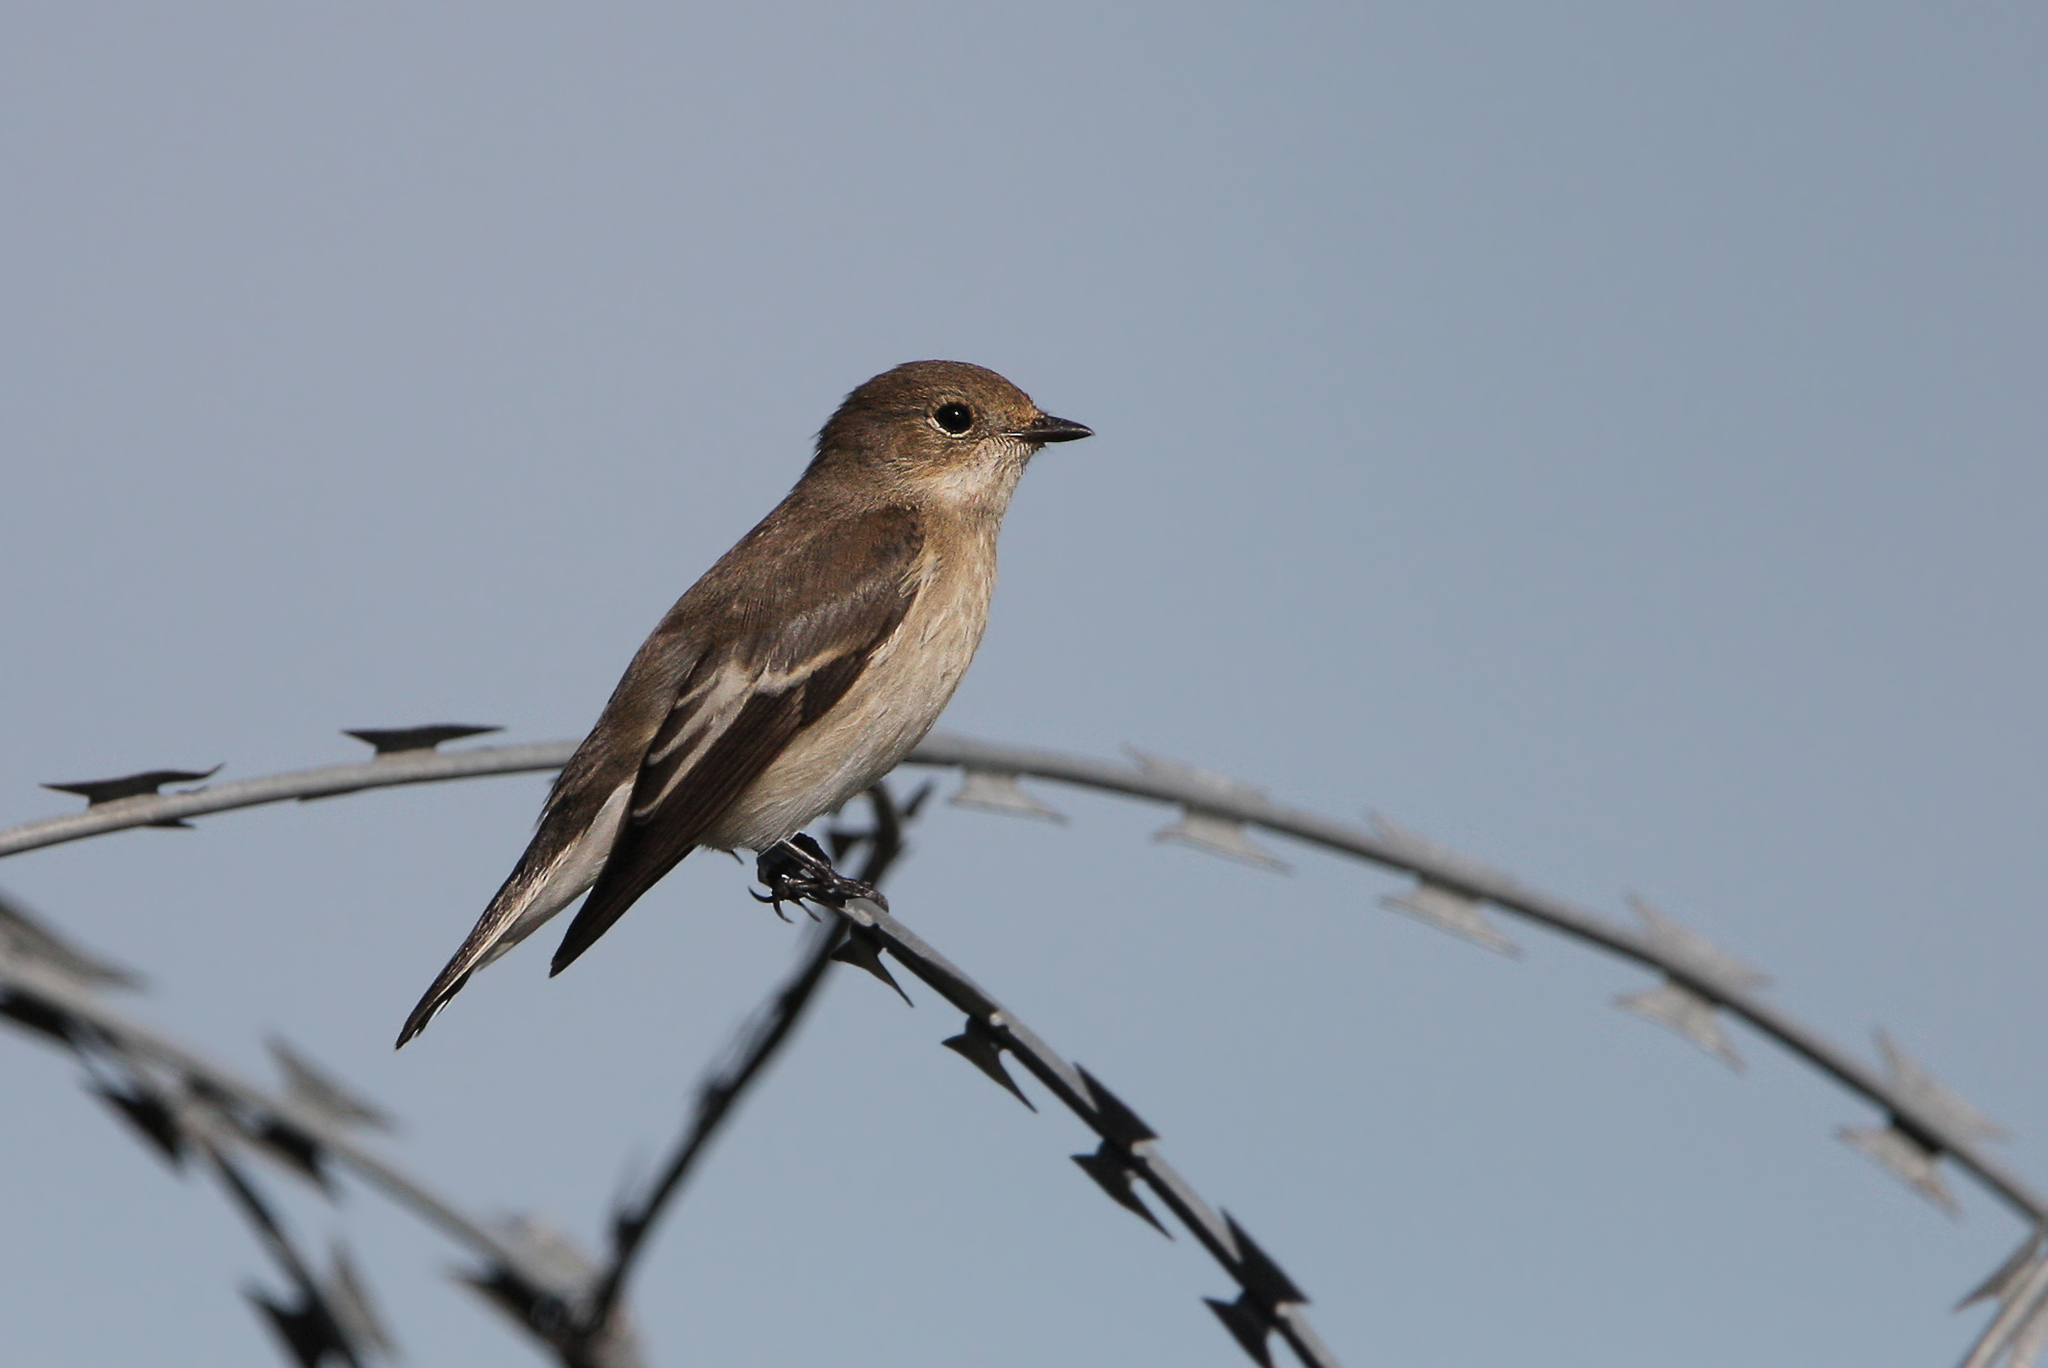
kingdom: Animalia
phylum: Chordata
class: Aves
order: Passeriformes
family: Muscicapidae
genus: Ficedula
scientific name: Ficedula hypoleuca
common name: European pied flycatcher
